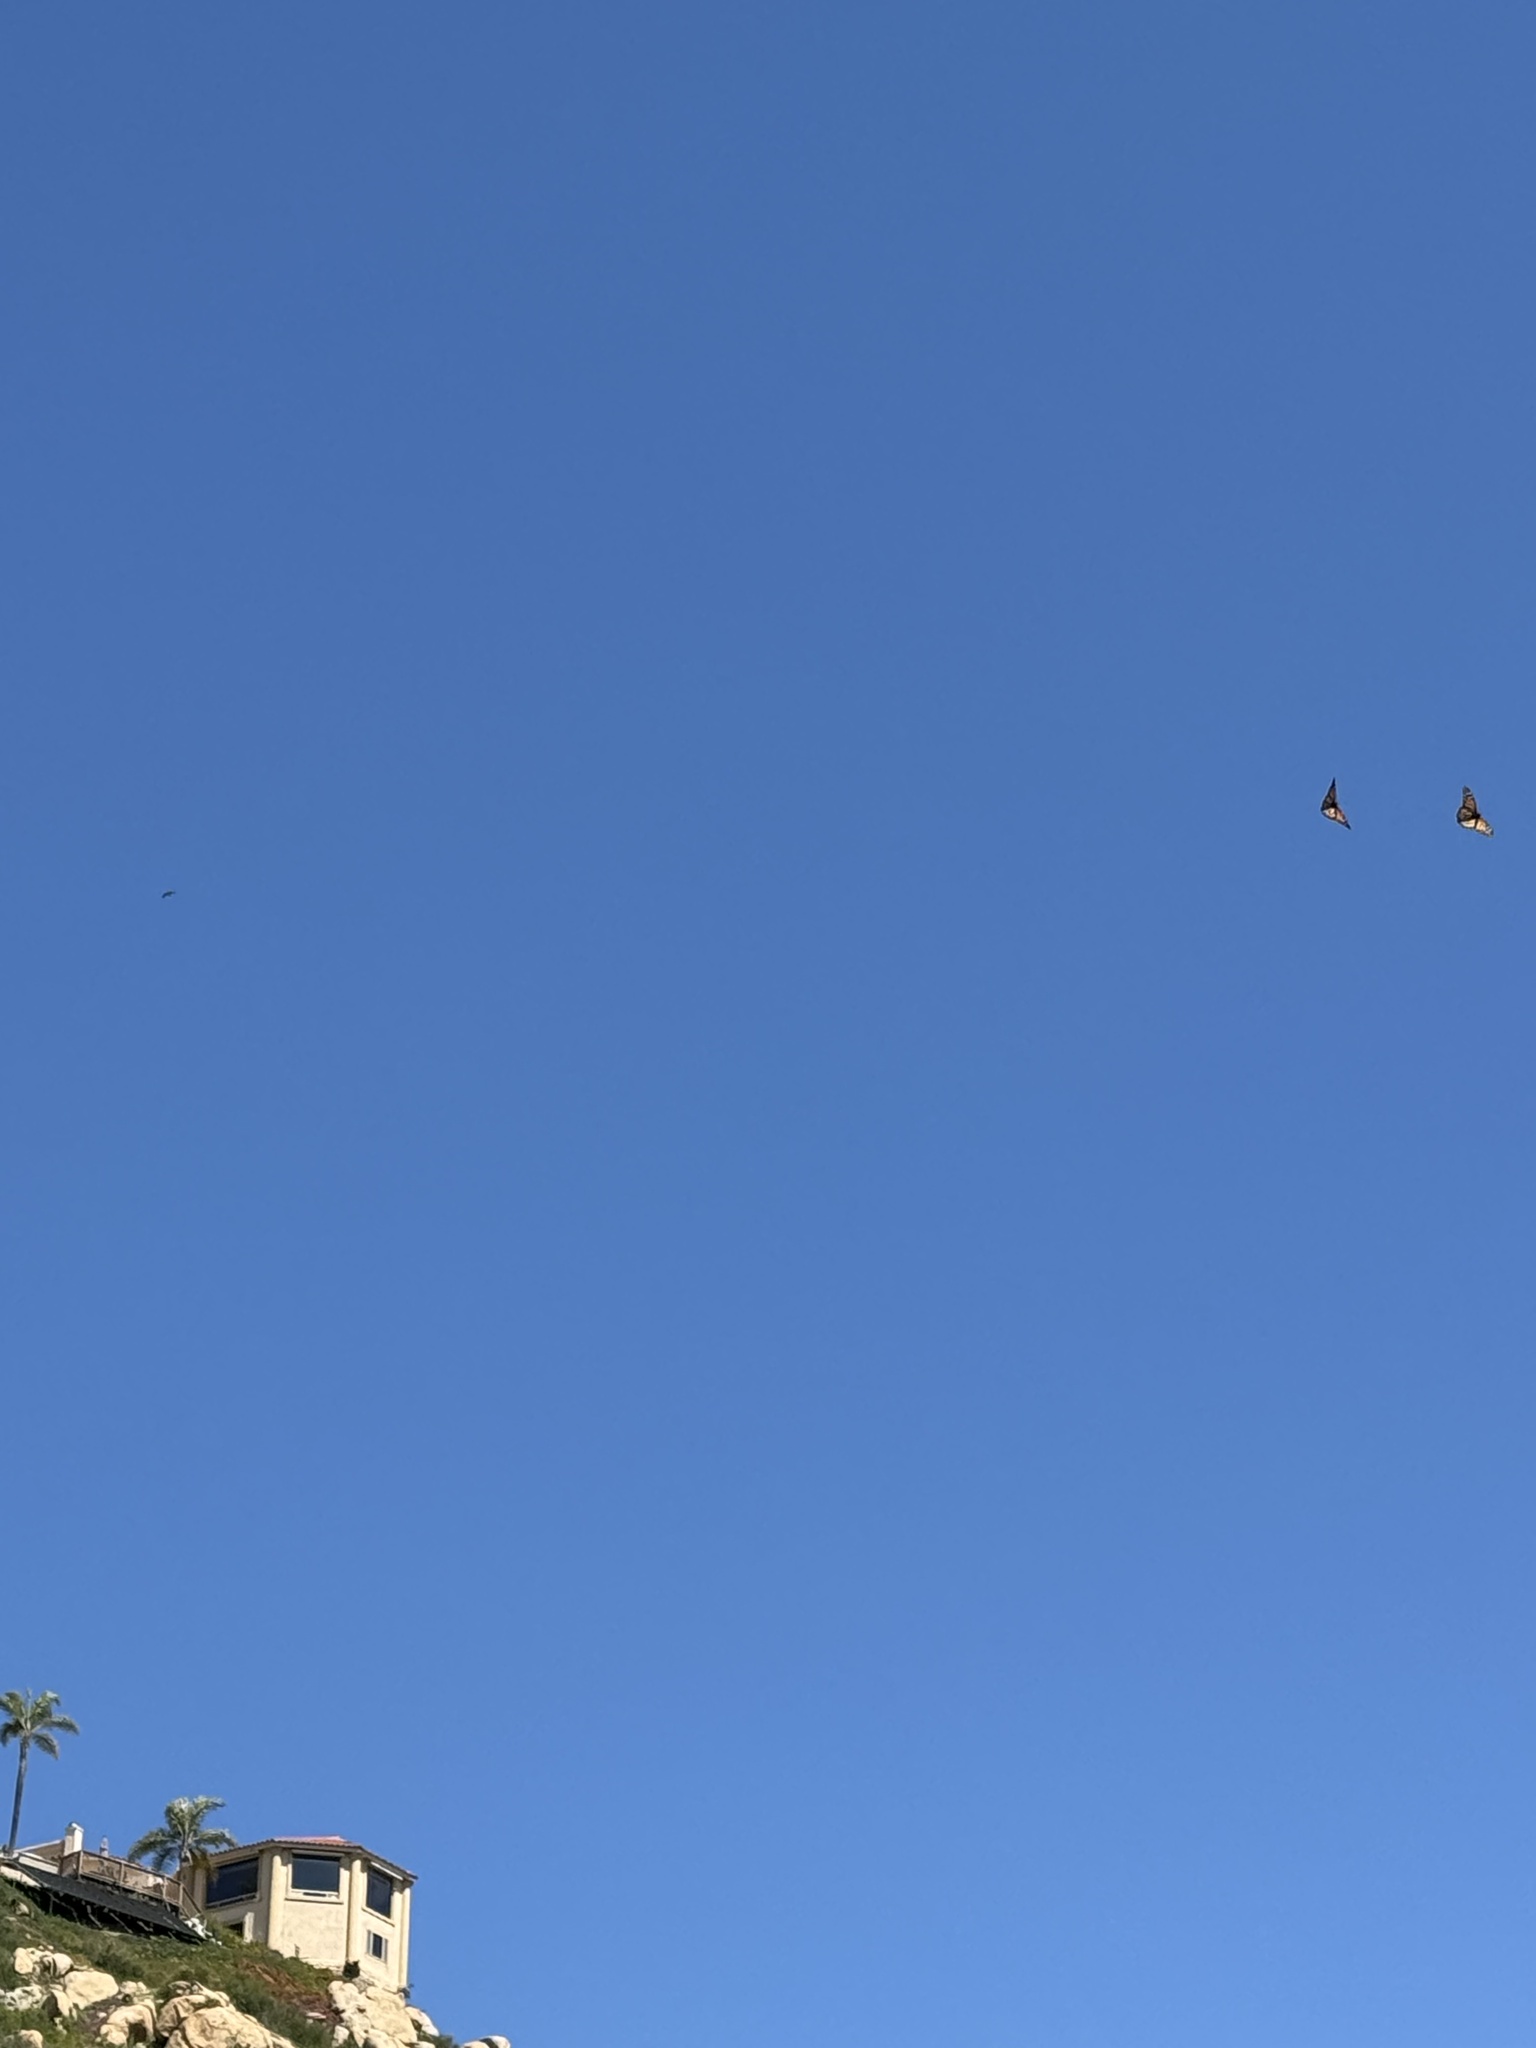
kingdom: Animalia
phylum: Arthropoda
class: Insecta
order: Lepidoptera
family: Nymphalidae
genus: Danaus
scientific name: Danaus plexippus
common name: Monarch
